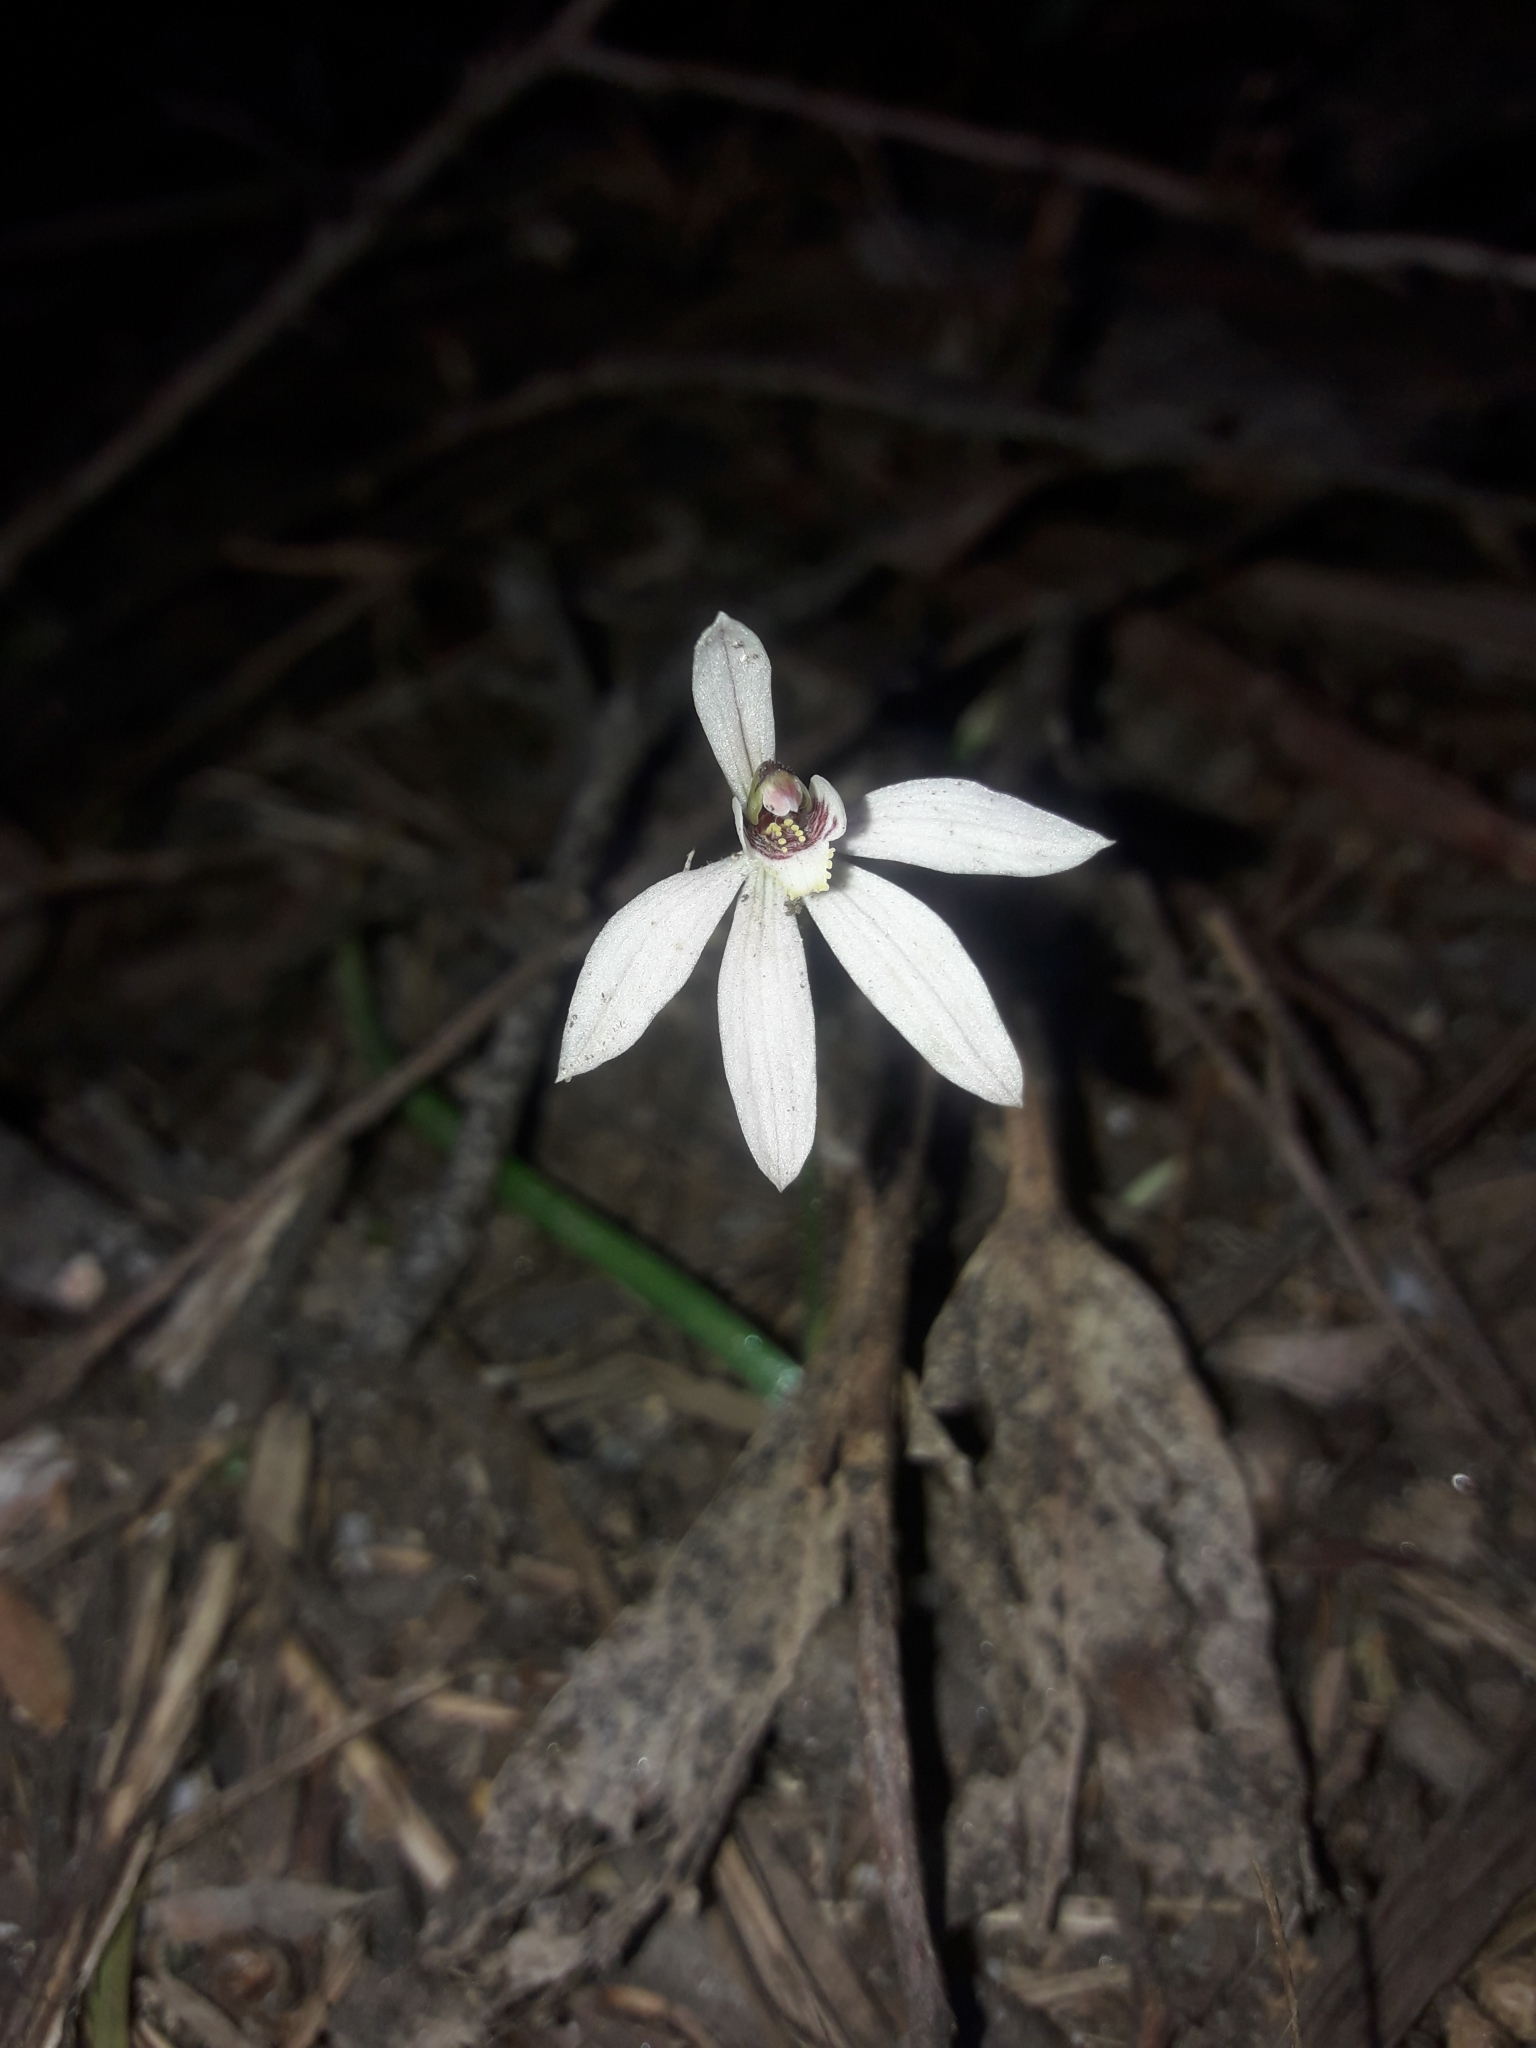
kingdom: Plantae
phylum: Tracheophyta
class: Liliopsida
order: Asparagales
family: Orchidaceae
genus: Caladenia
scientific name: Caladenia vulgaris
